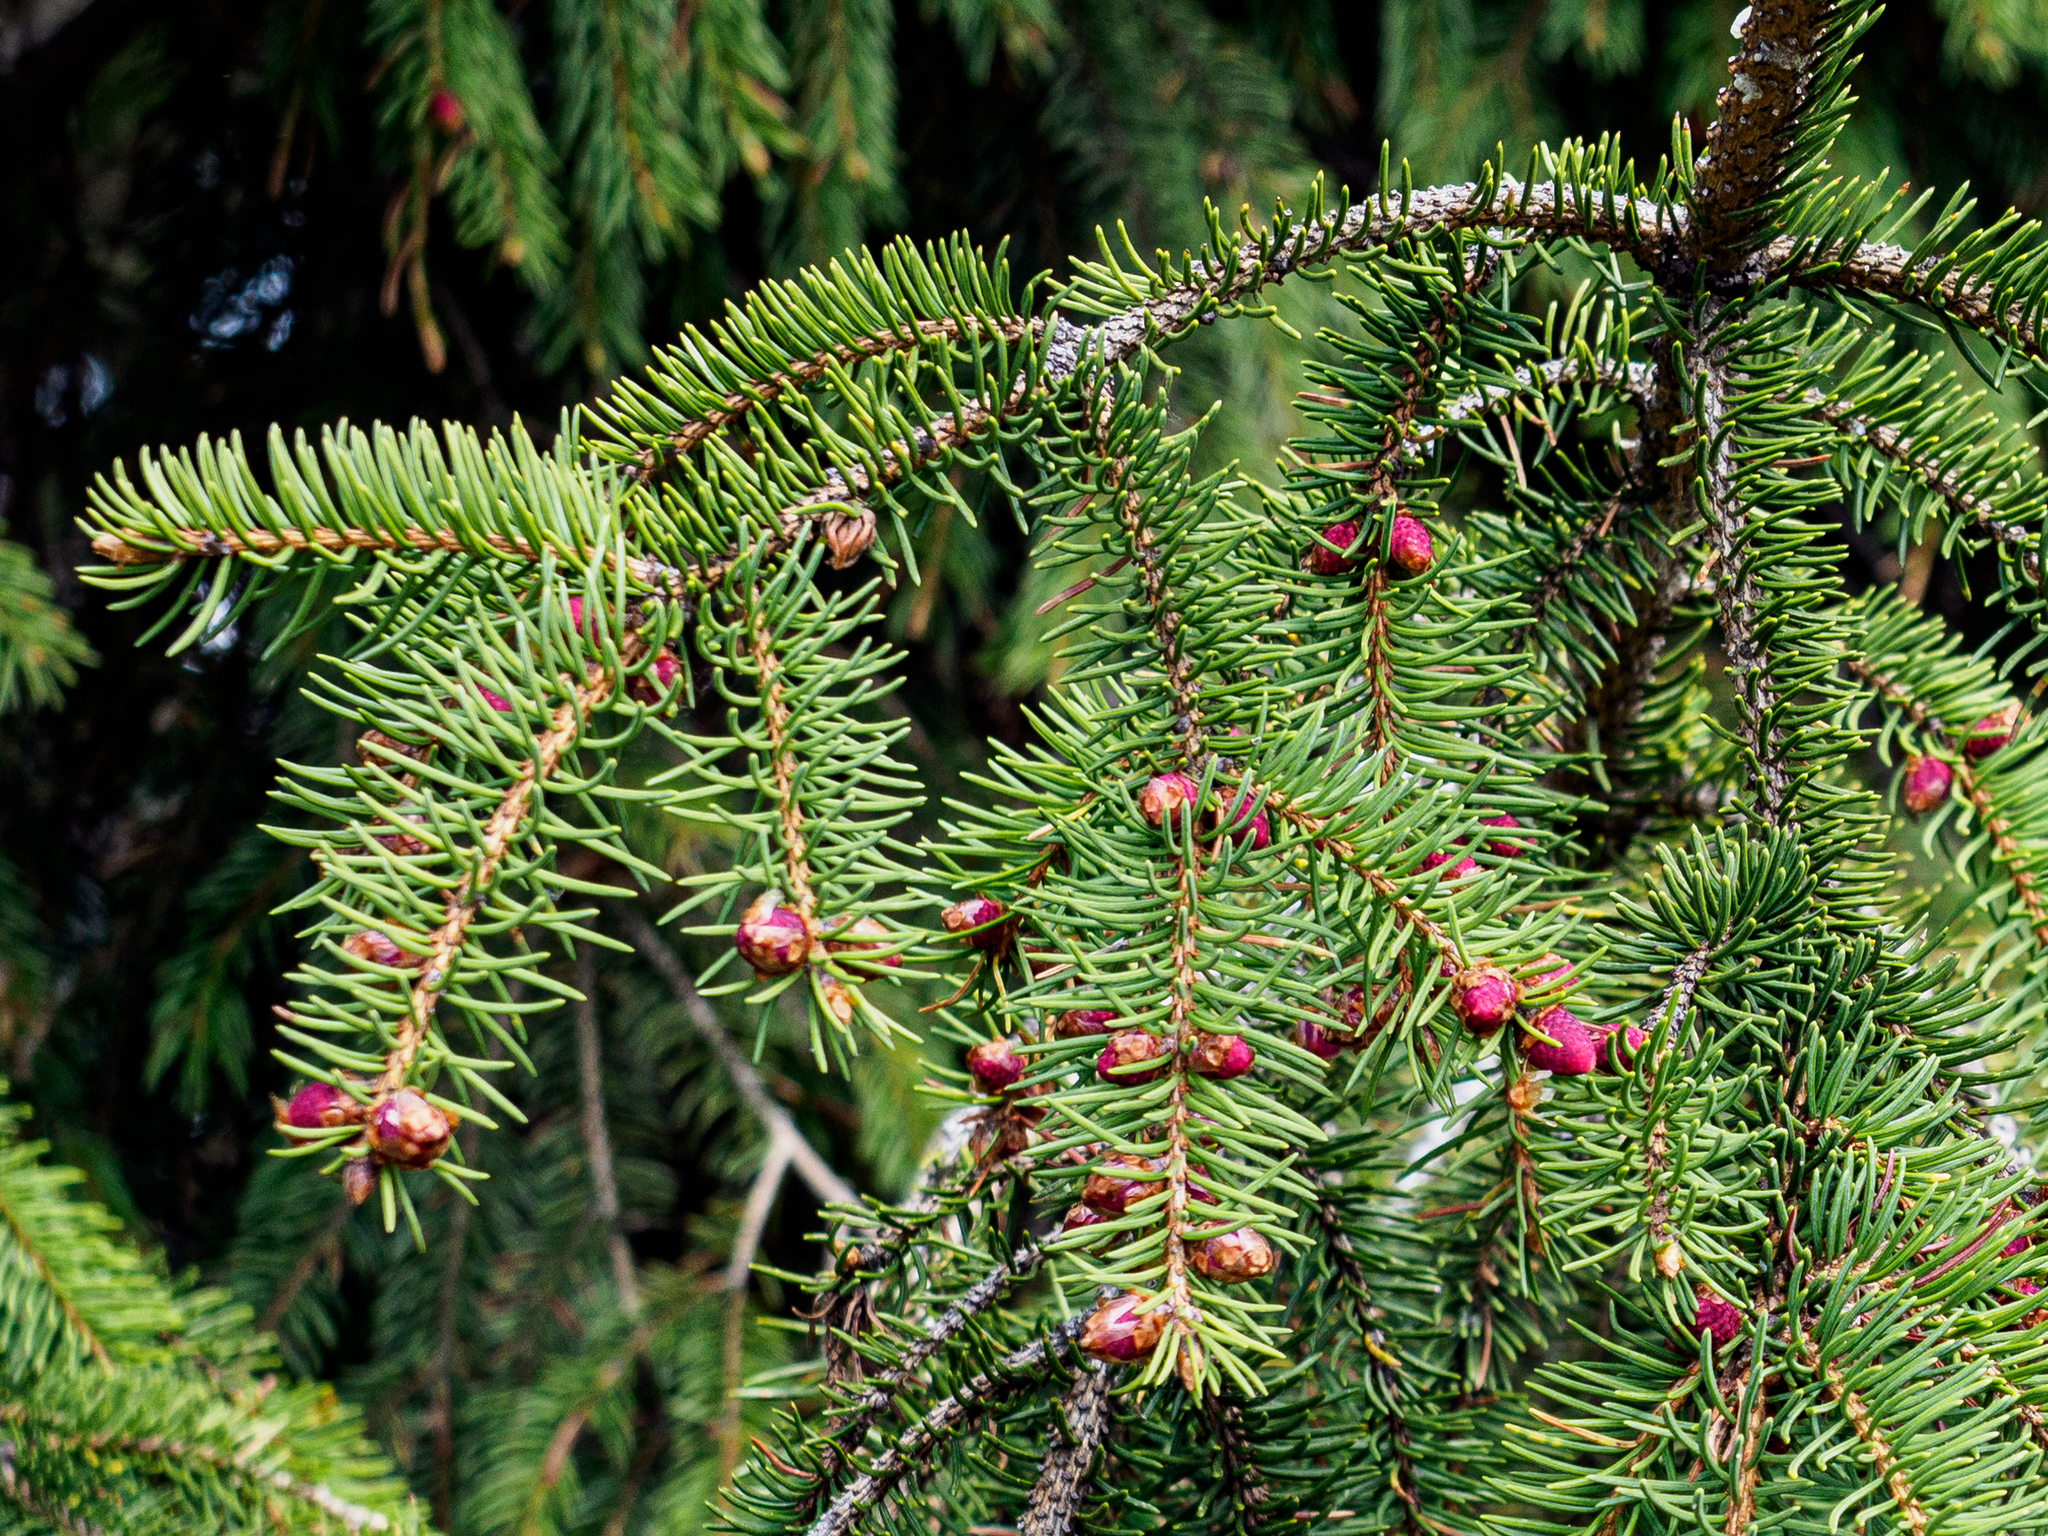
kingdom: Plantae
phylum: Tracheophyta
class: Pinopsida
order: Pinales
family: Pinaceae
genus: Picea
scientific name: Picea abies
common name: Norway spruce
